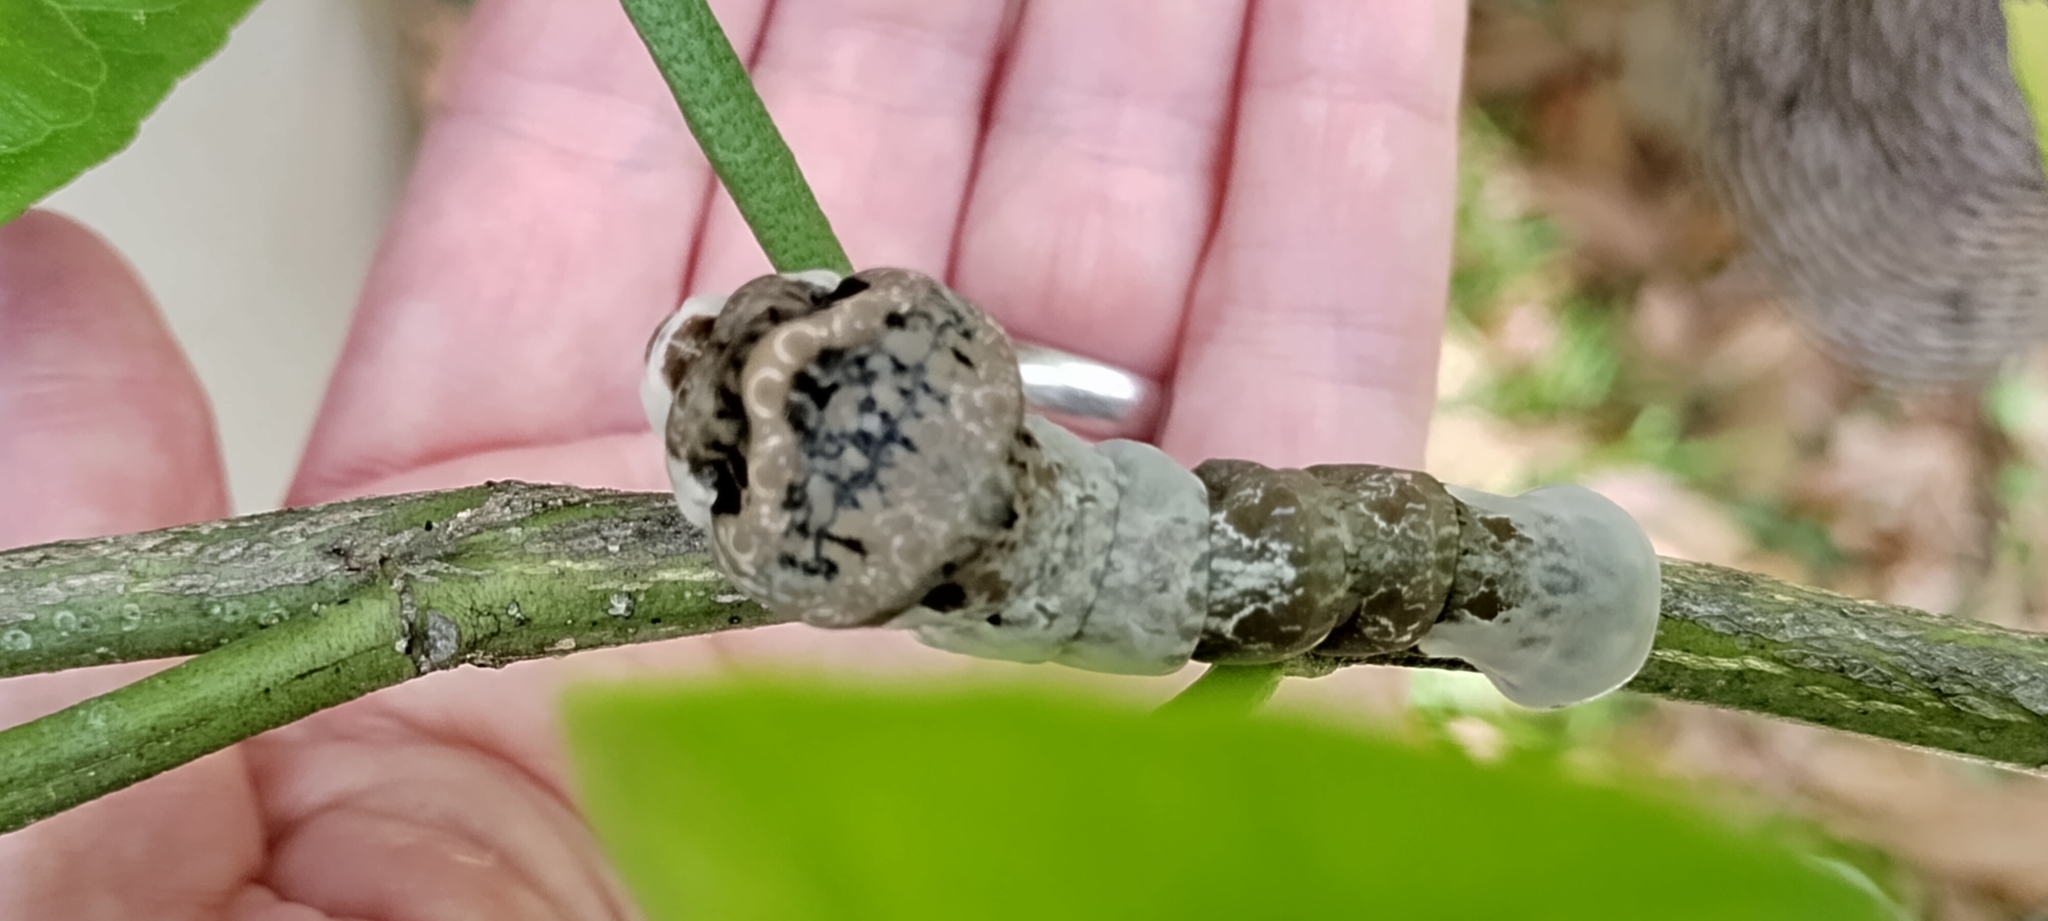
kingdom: Animalia
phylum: Arthropoda
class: Insecta
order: Lepidoptera
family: Papilionidae
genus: Papilio
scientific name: Papilio cresphontes
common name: Giant swallowtail
